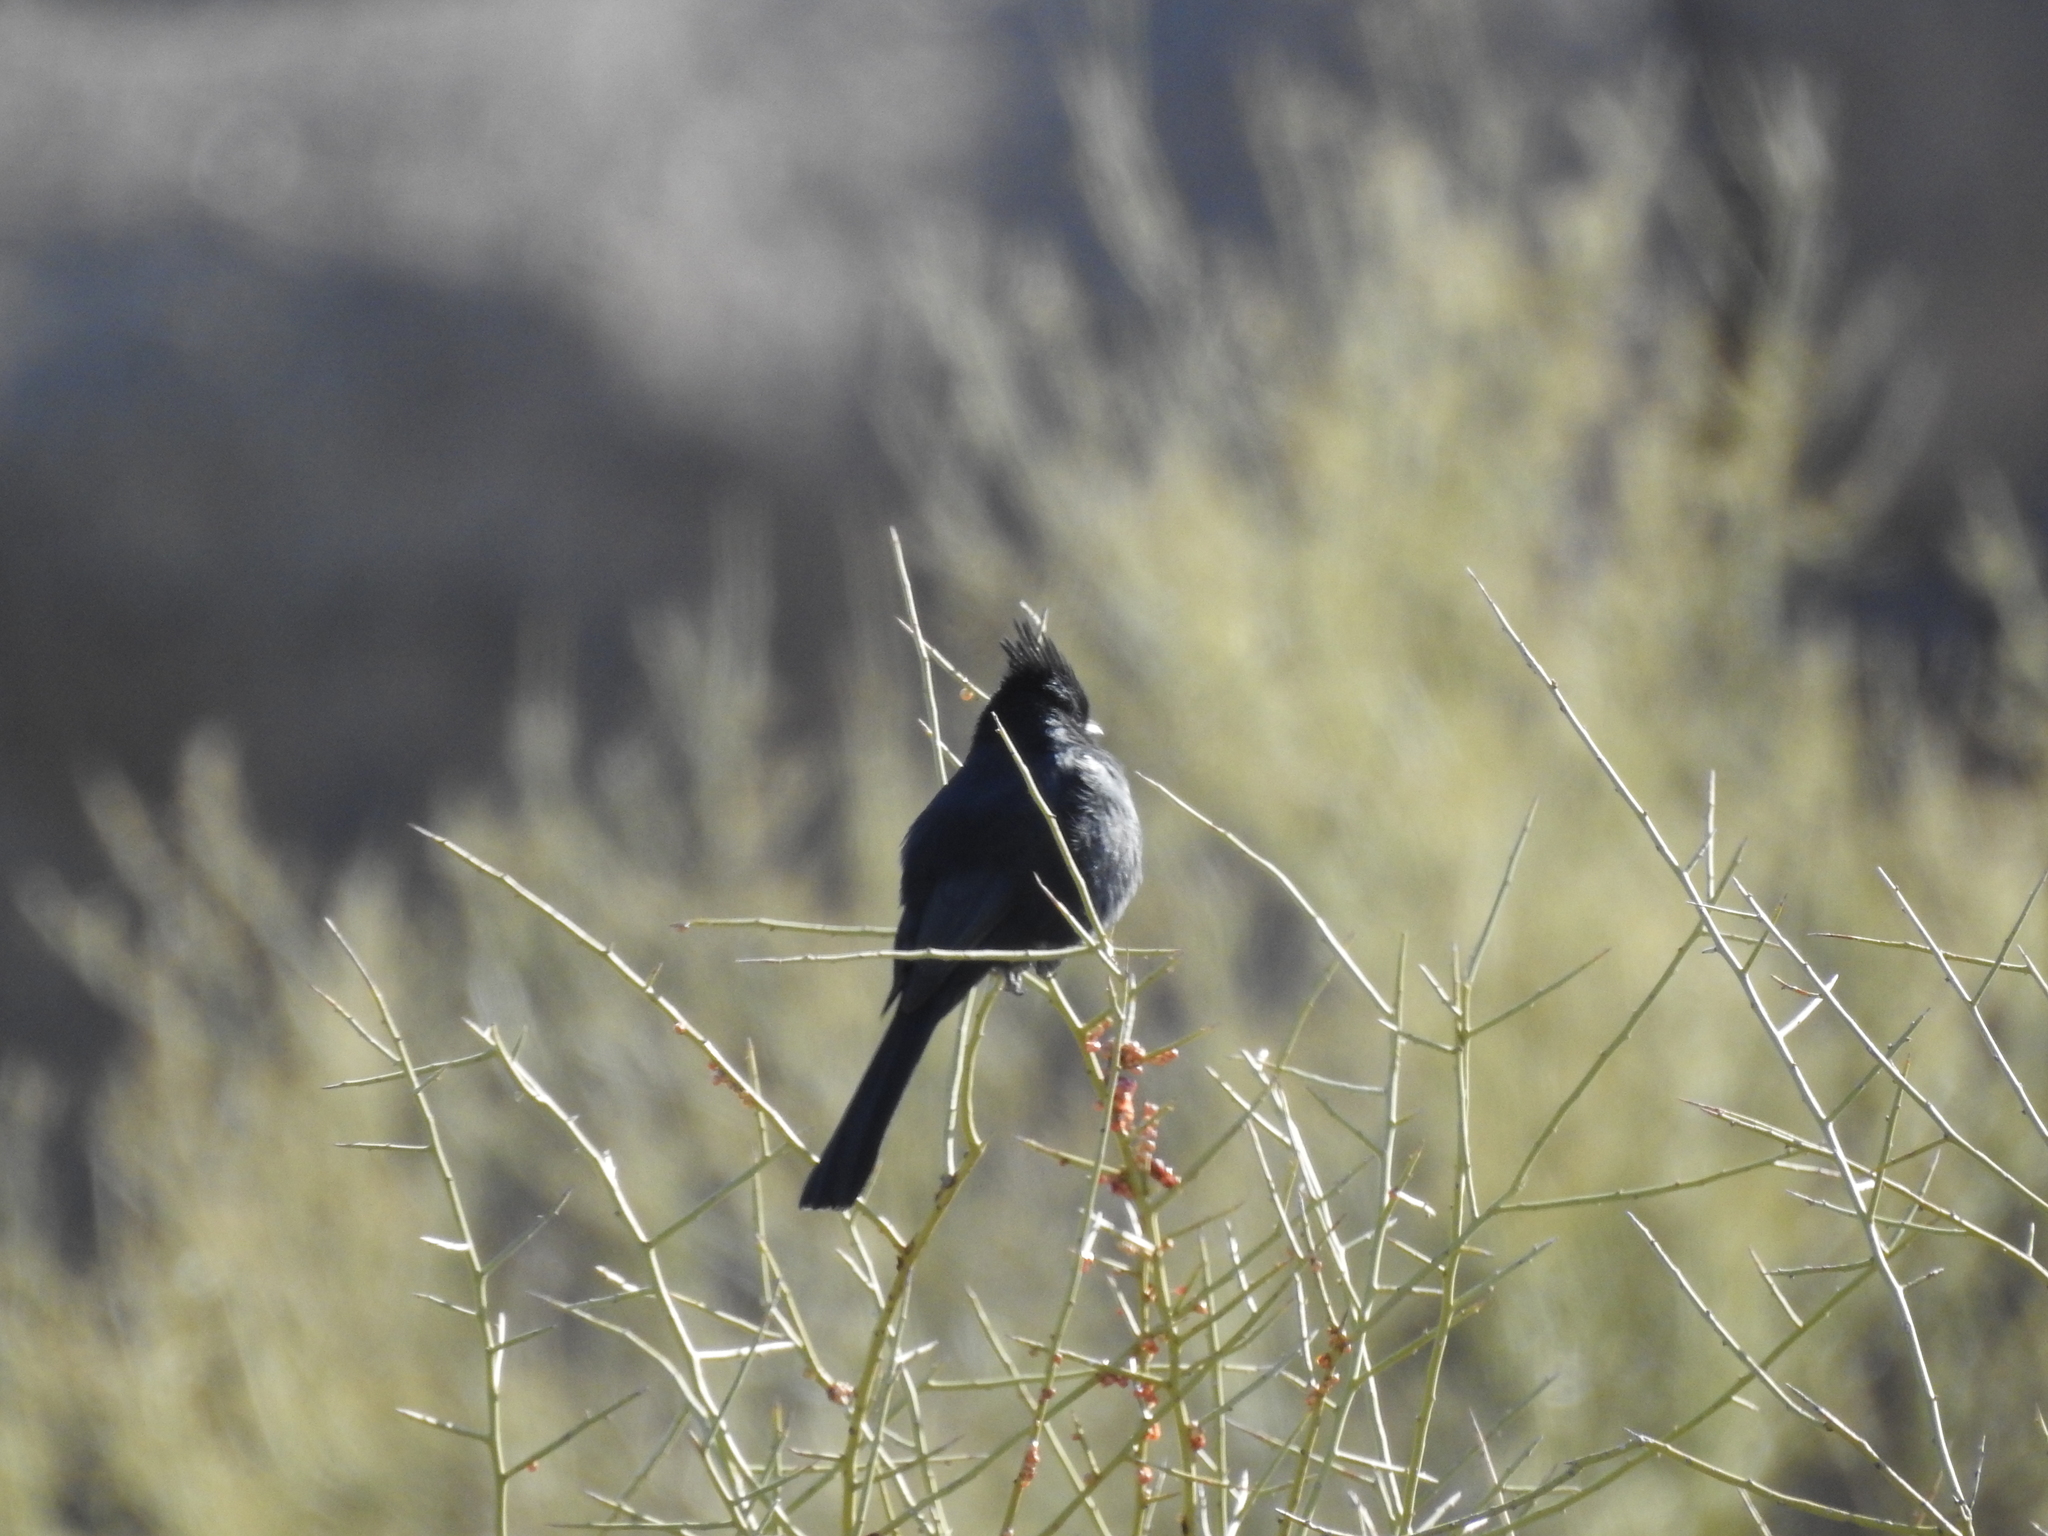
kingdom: Animalia
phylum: Chordata
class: Aves
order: Passeriformes
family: Ptilogonatidae
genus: Phainopepla
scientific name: Phainopepla nitens
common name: Phainopepla
